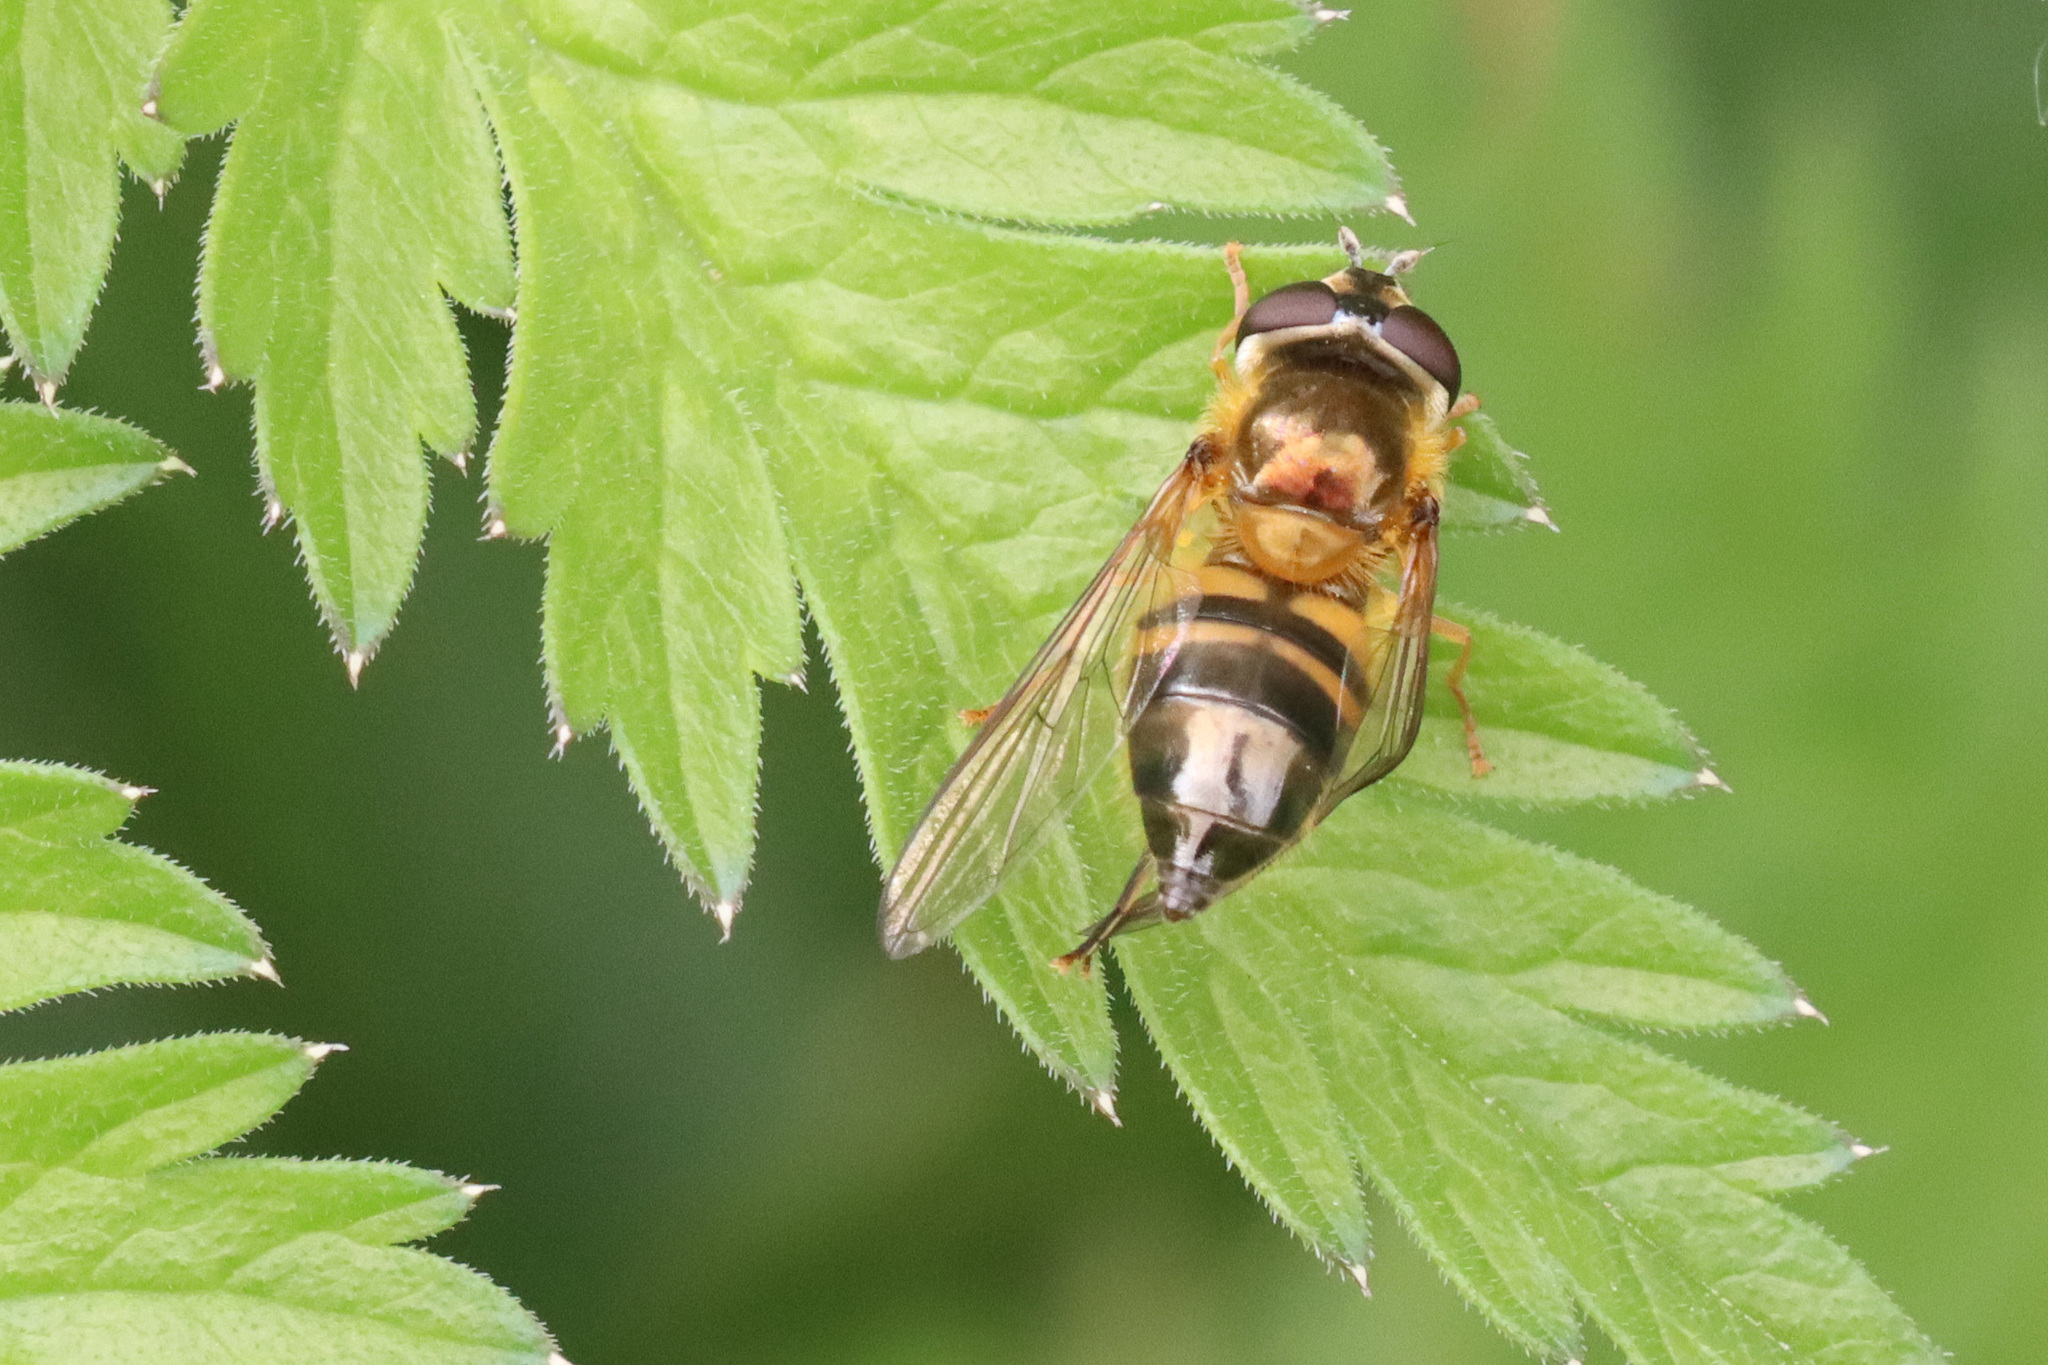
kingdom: Animalia
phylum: Arthropoda
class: Insecta
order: Diptera
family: Syrphidae
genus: Epistrophe
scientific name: Epistrophe eligans
